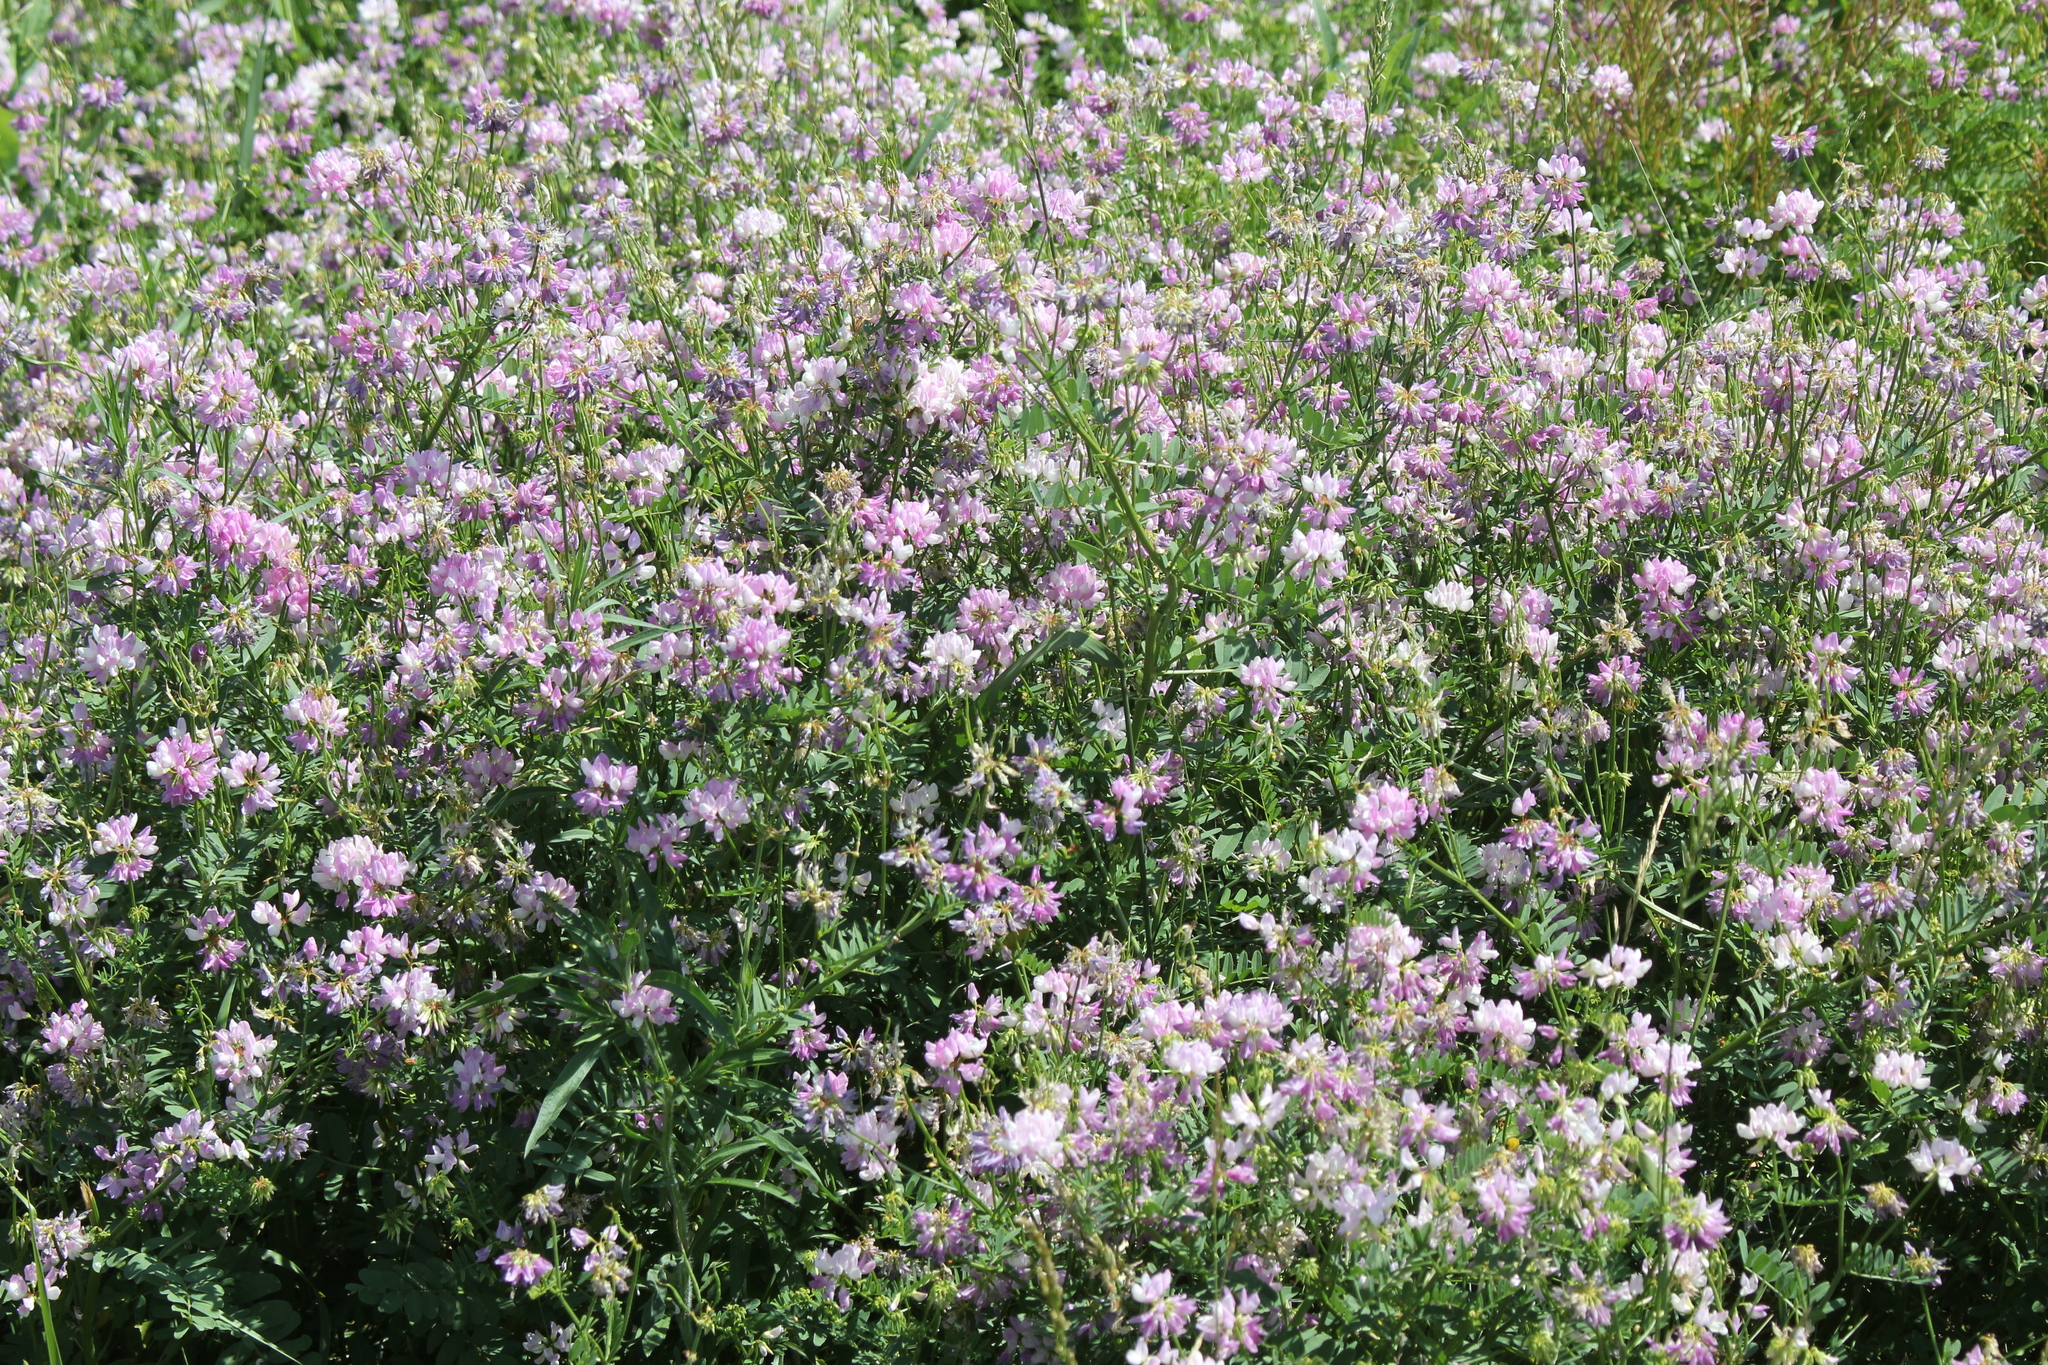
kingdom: Plantae
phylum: Tracheophyta
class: Magnoliopsida
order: Fabales
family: Fabaceae
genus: Coronilla
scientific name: Coronilla varia
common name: Crownvetch
